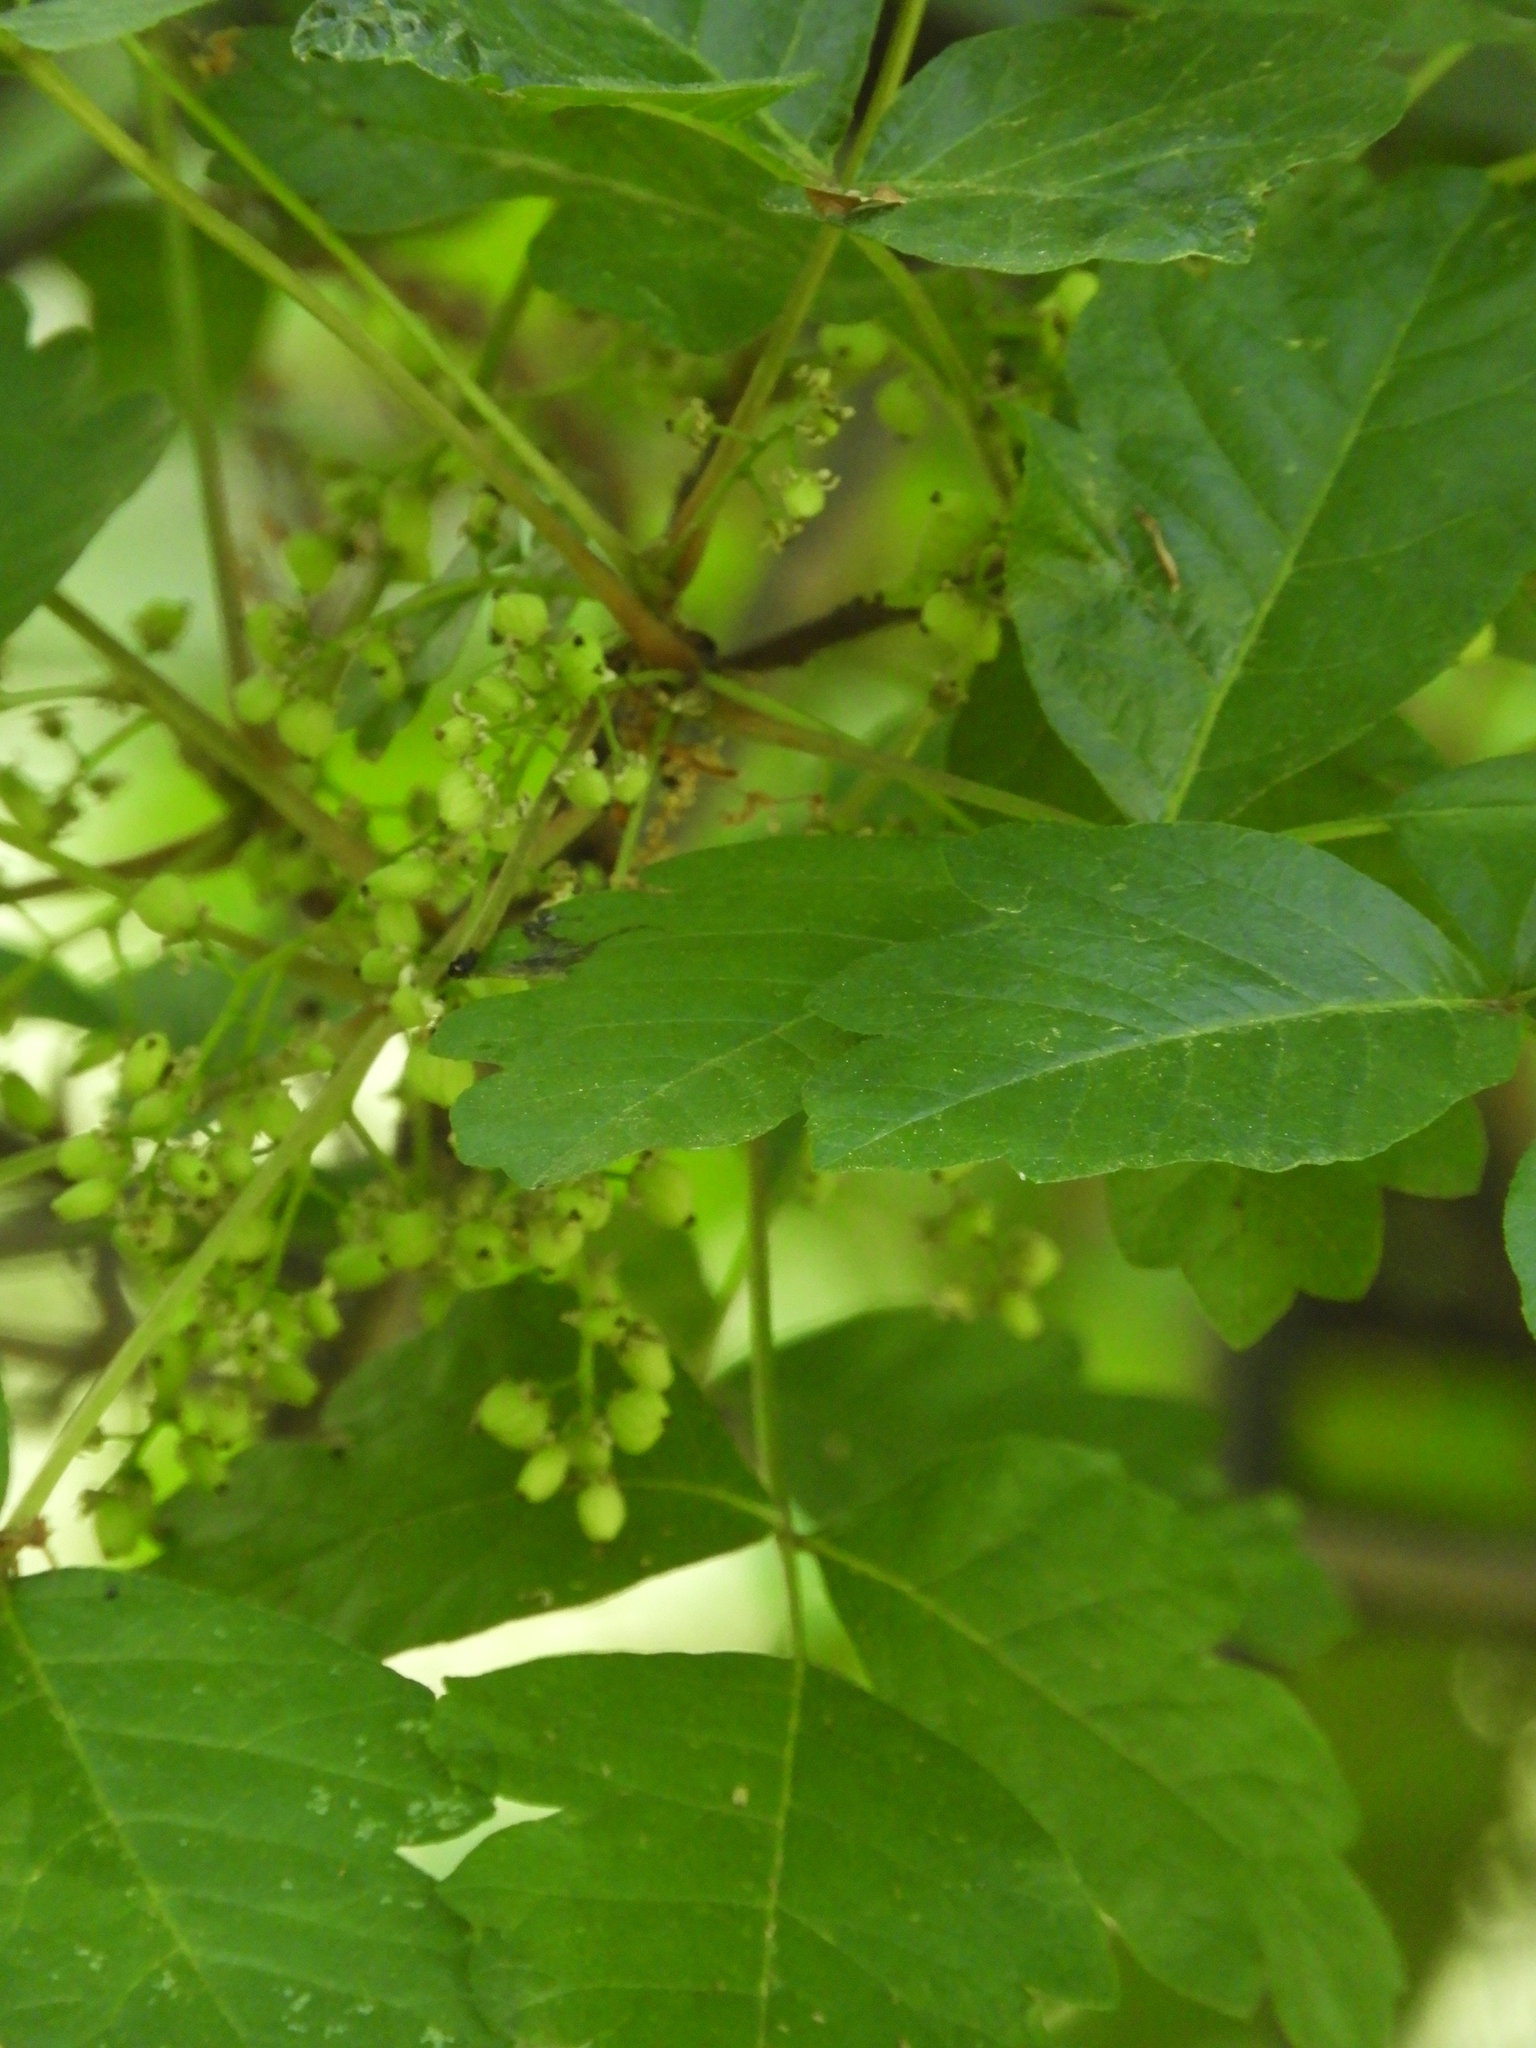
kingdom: Plantae
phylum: Tracheophyta
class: Magnoliopsida
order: Sapindales
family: Anacardiaceae
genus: Toxicodendron
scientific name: Toxicodendron diversilobum
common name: Pacific poison-oak
